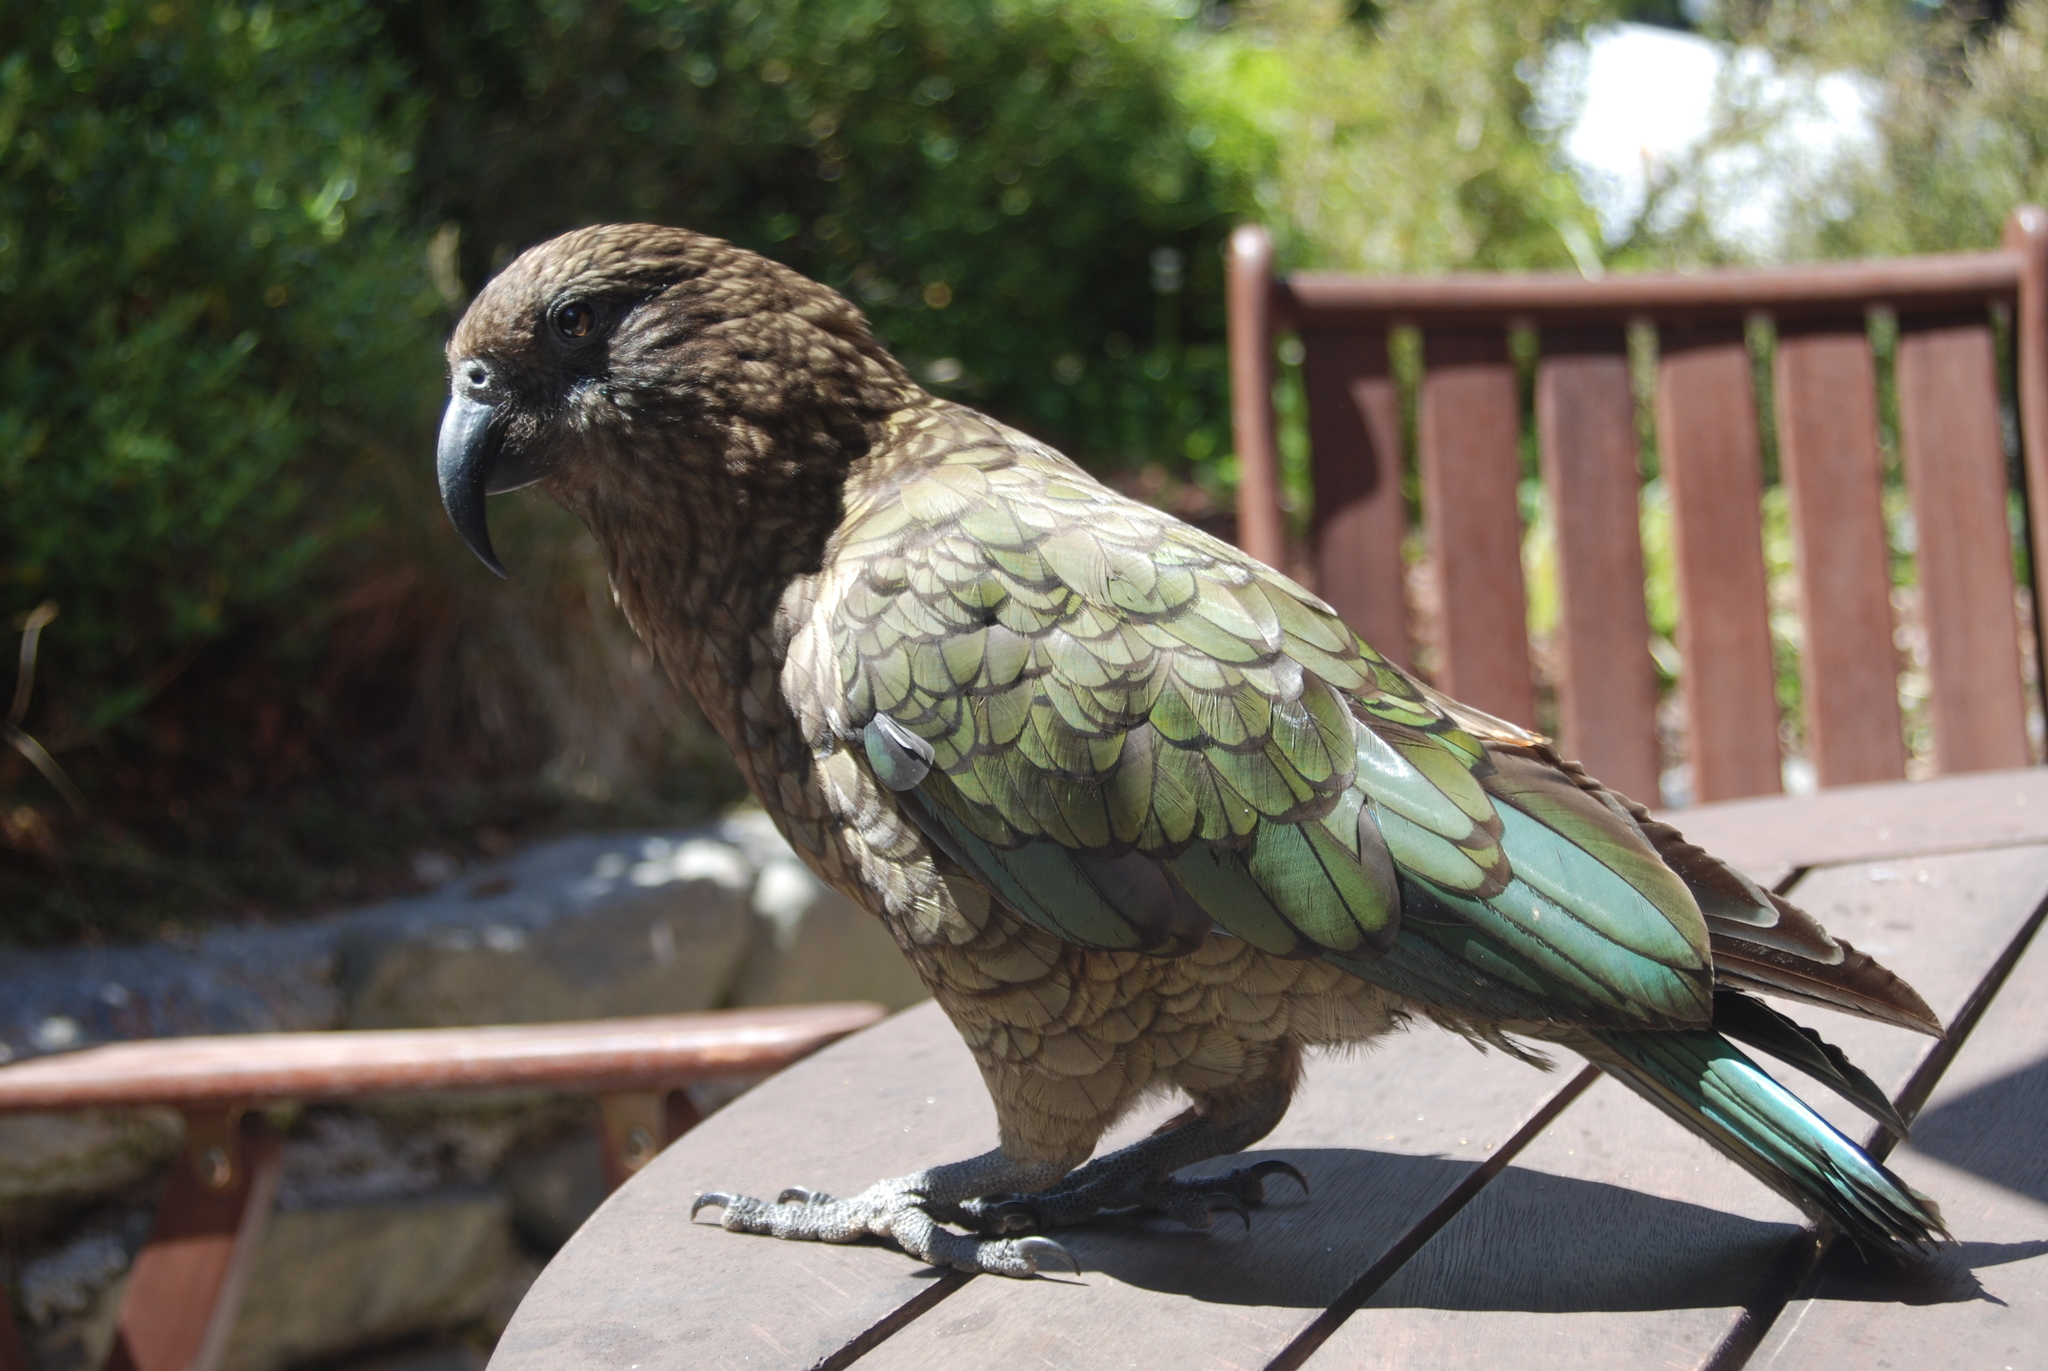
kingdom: Animalia
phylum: Chordata
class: Aves
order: Psittaciformes
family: Psittacidae
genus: Nestor
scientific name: Nestor notabilis
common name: Kea
